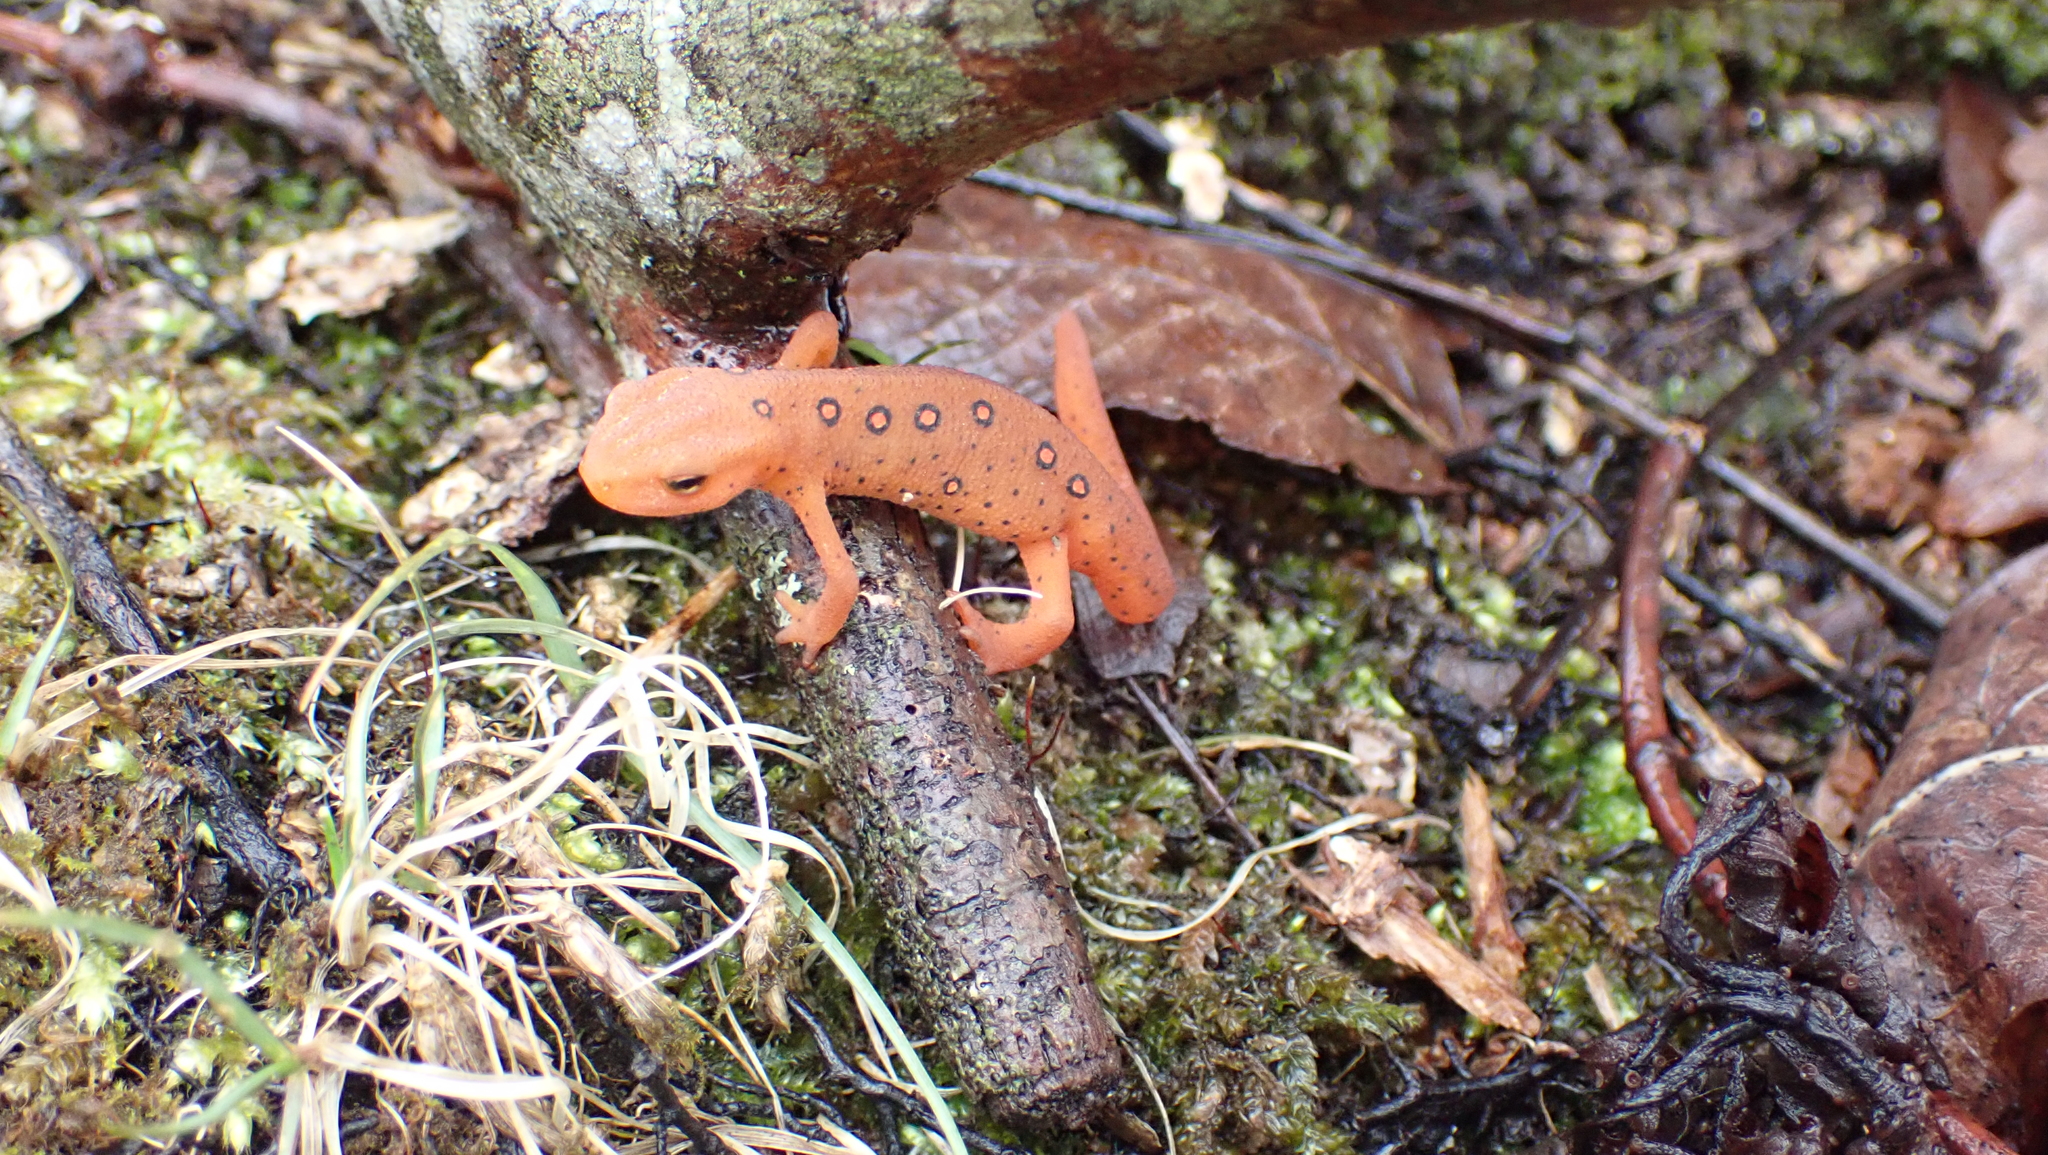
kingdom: Animalia
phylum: Chordata
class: Amphibia
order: Caudata
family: Salamandridae
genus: Notophthalmus
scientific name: Notophthalmus viridescens
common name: Eastern newt
